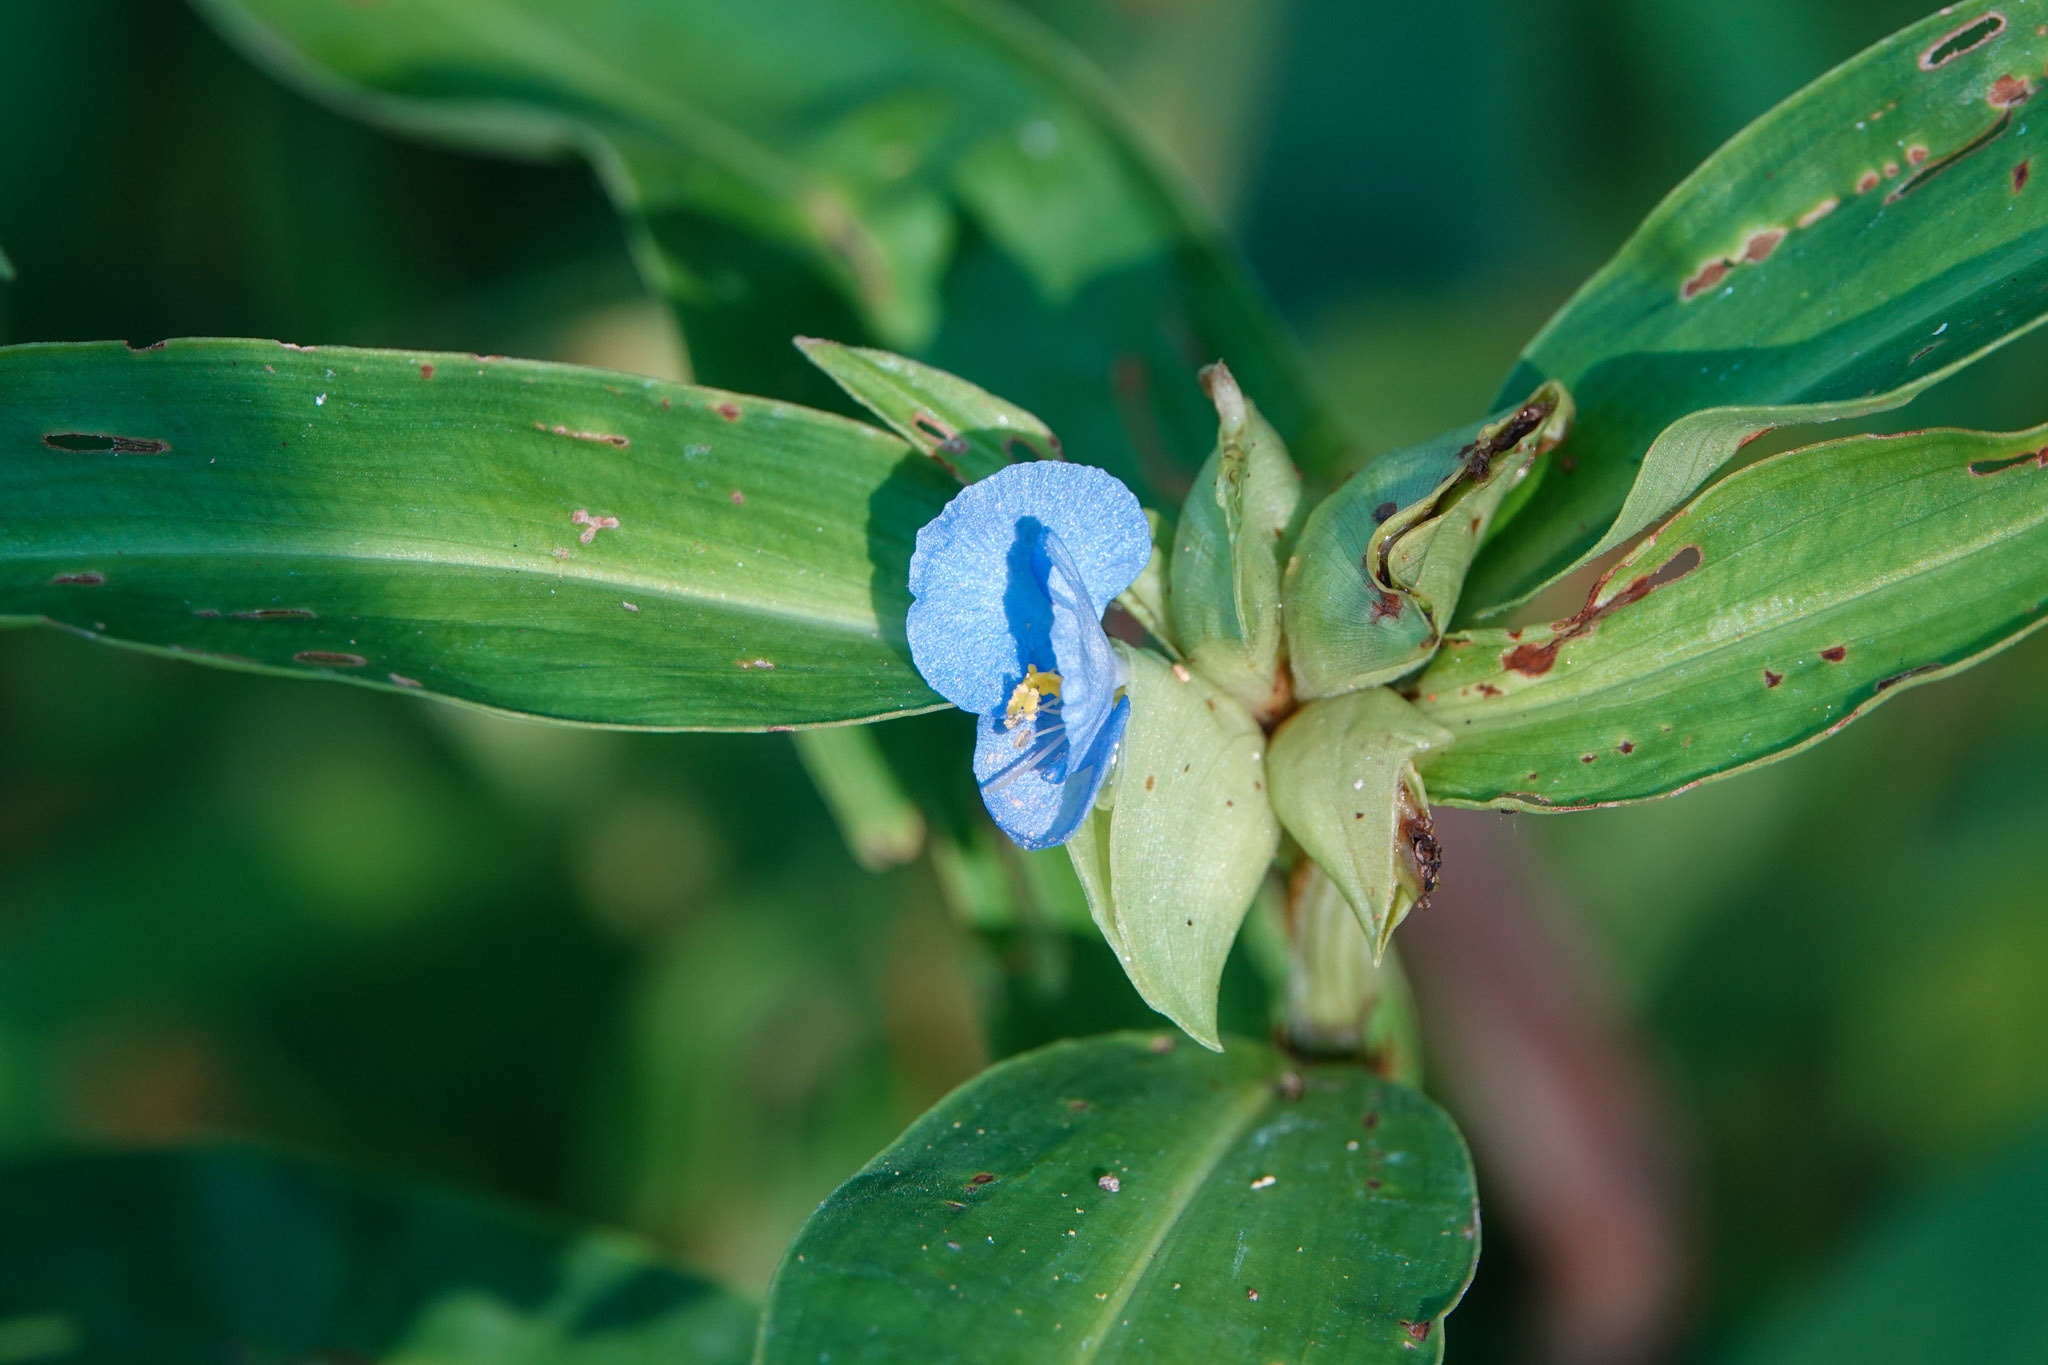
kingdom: Plantae
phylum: Tracheophyta
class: Liliopsida
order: Commelinales
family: Commelinaceae
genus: Commelina
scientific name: Commelina virginica
